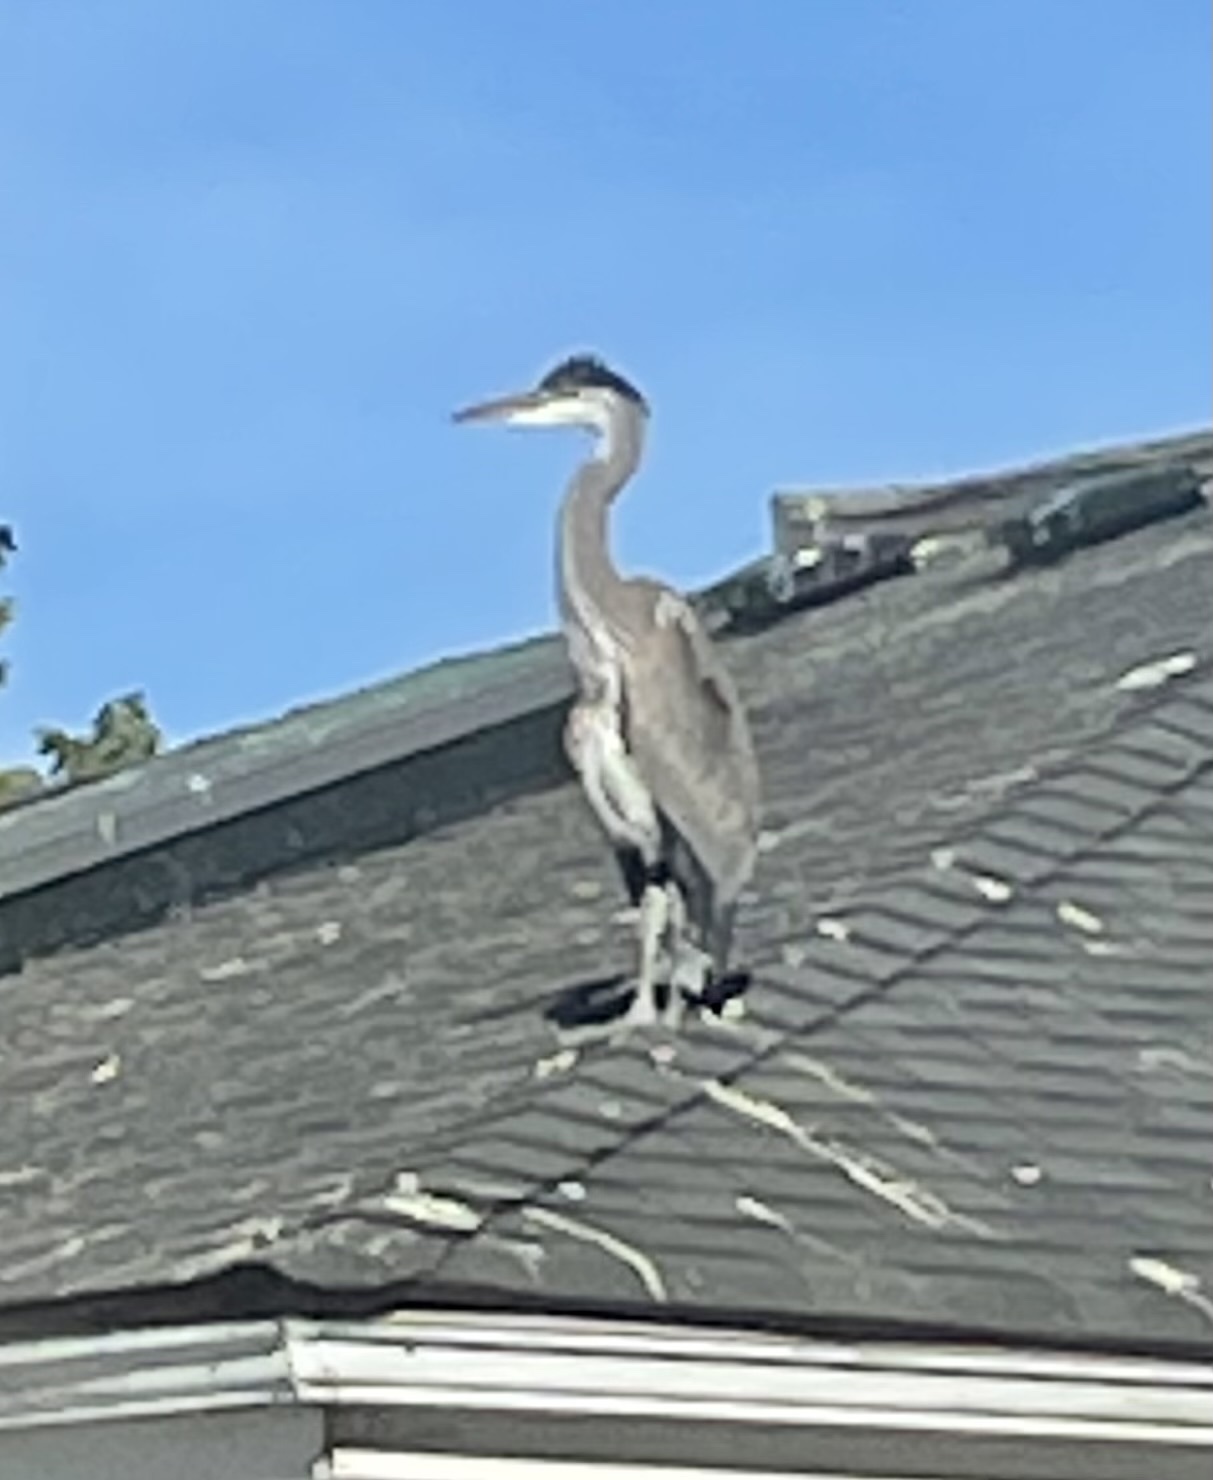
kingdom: Animalia
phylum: Chordata
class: Aves
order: Pelecaniformes
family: Ardeidae
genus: Ardea
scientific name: Ardea herodias
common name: Great blue heron
